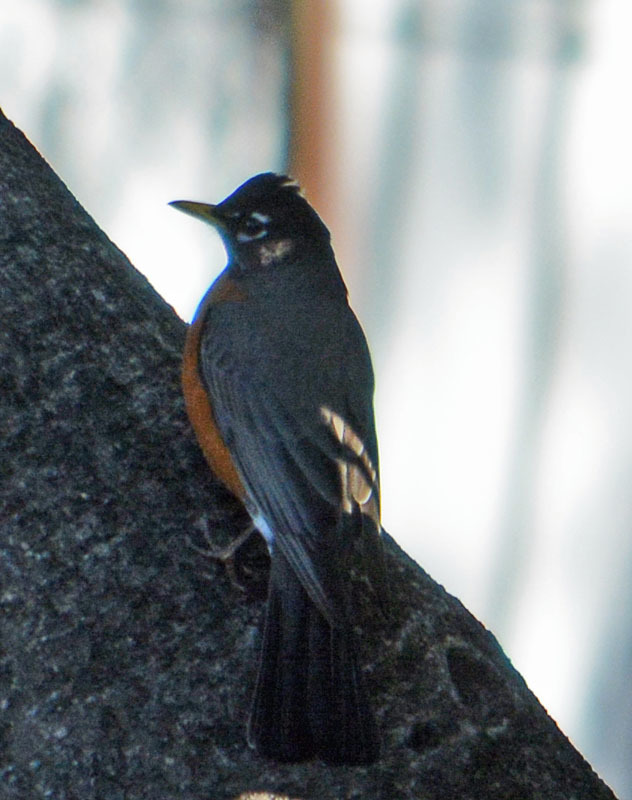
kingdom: Animalia
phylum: Chordata
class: Aves
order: Passeriformes
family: Turdidae
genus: Turdus
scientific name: Turdus migratorius
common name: American robin
